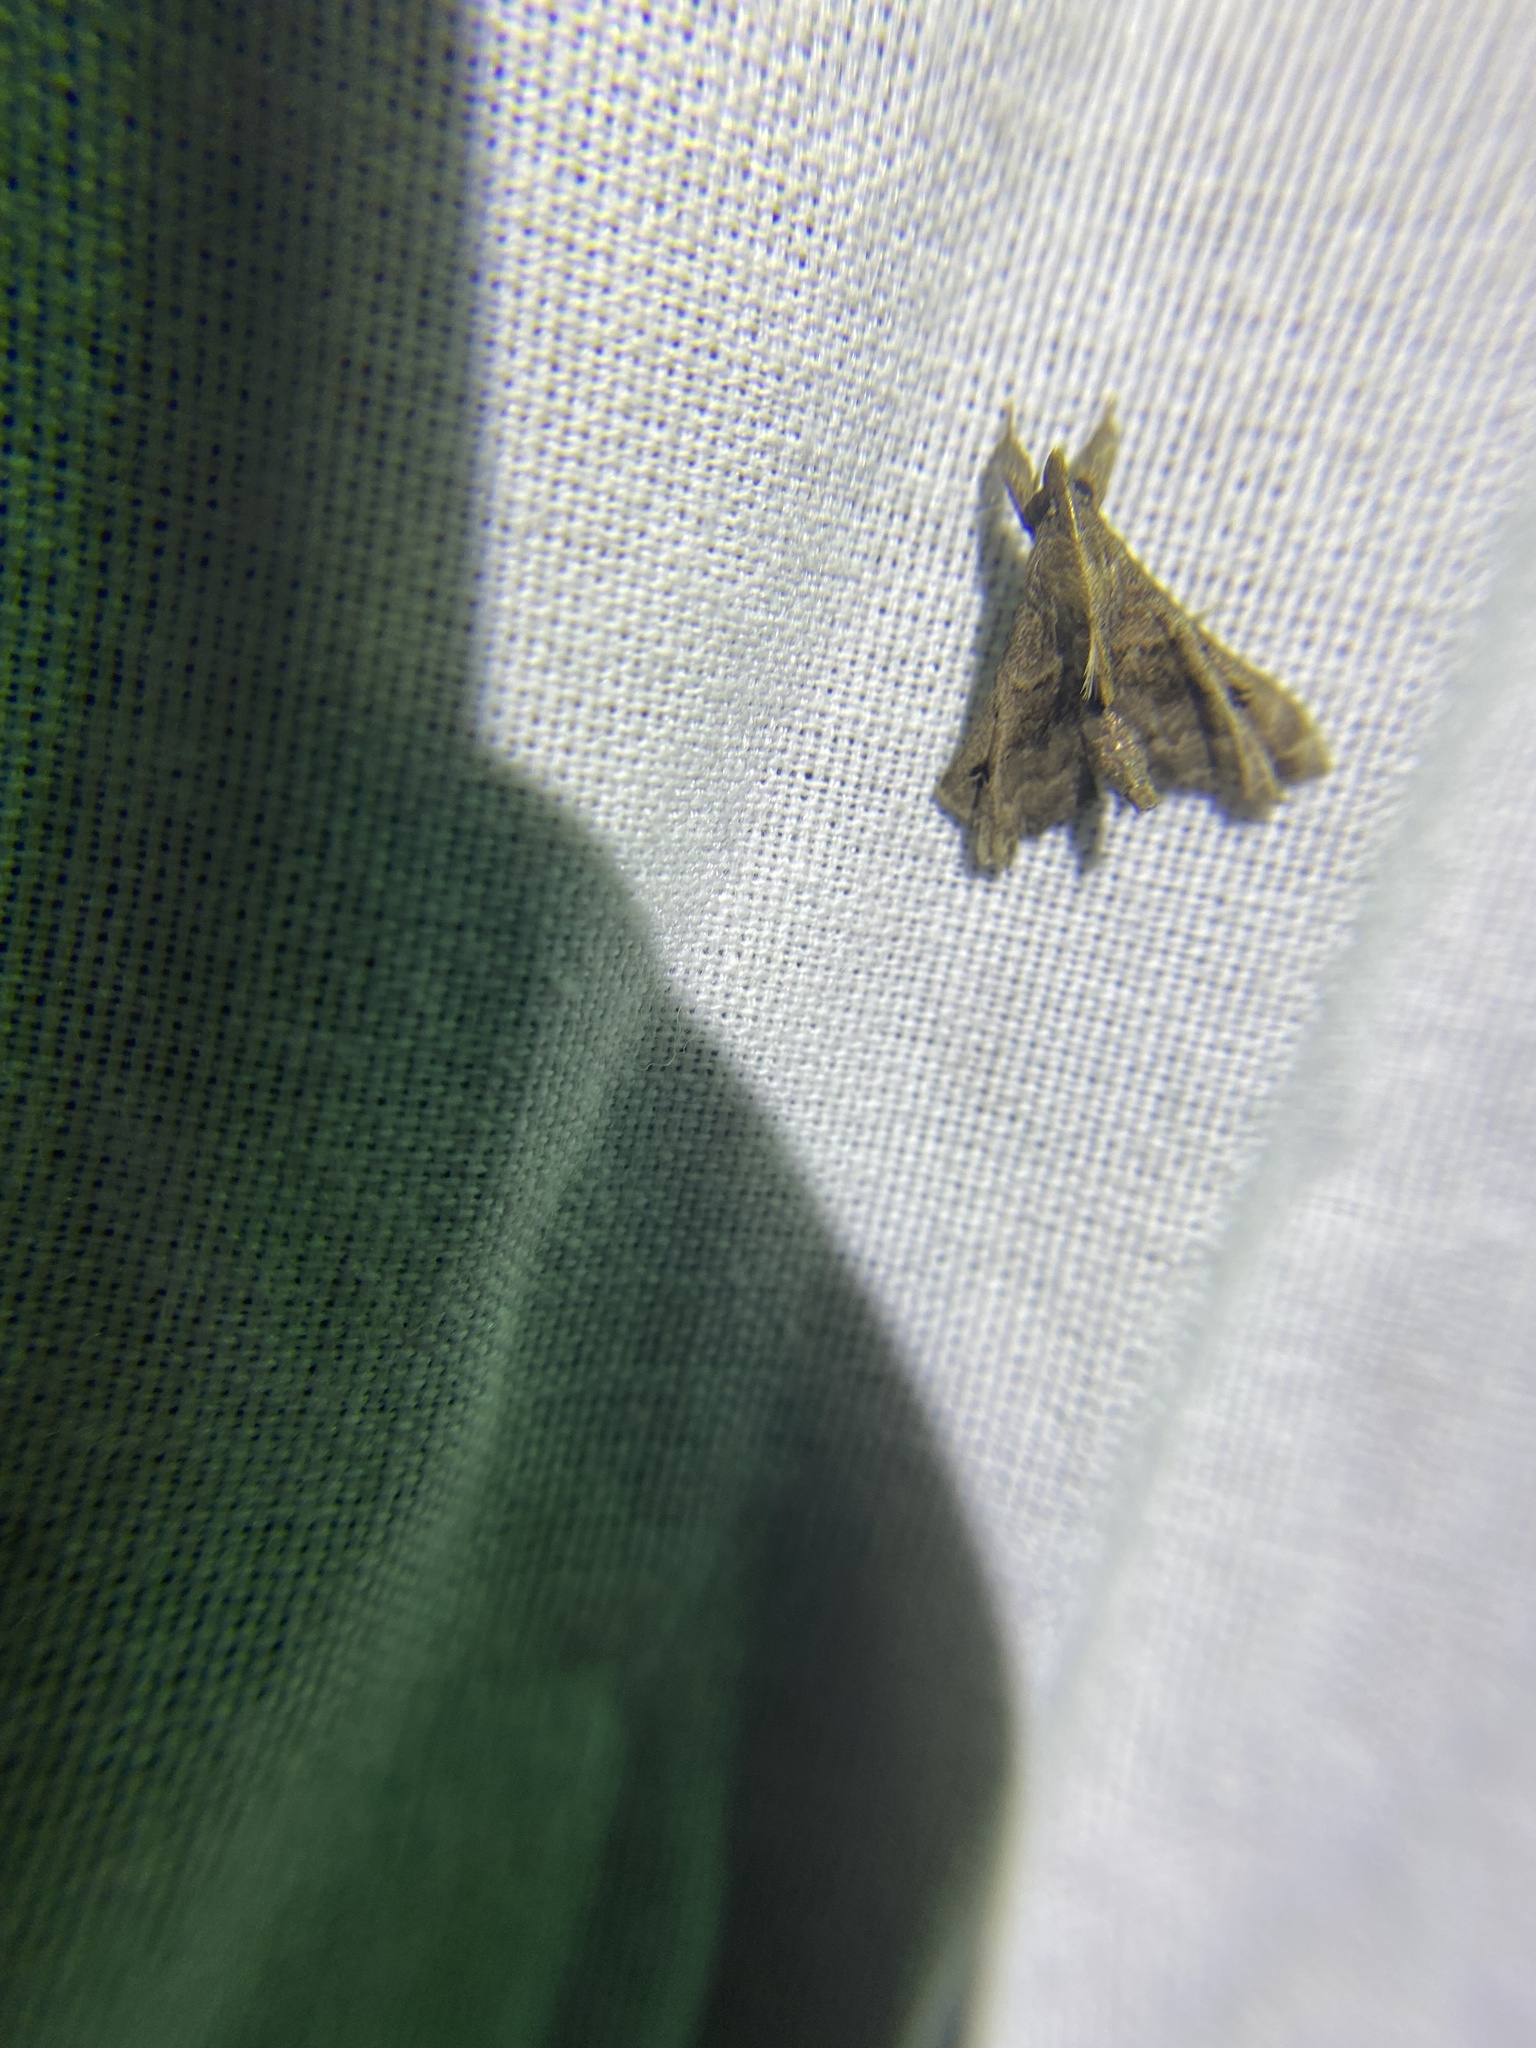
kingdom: Animalia
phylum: Arthropoda
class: Insecta
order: Lepidoptera
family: Erebidae
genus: Palthis
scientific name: Palthis asopialis
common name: Faint-spotted palthis moth
